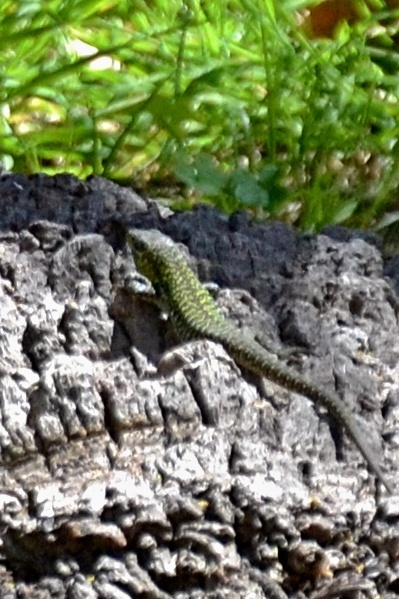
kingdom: Animalia
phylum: Chordata
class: Squamata
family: Lacertidae
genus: Podarcis
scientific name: Podarcis siculus
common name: Italian wall lizard
